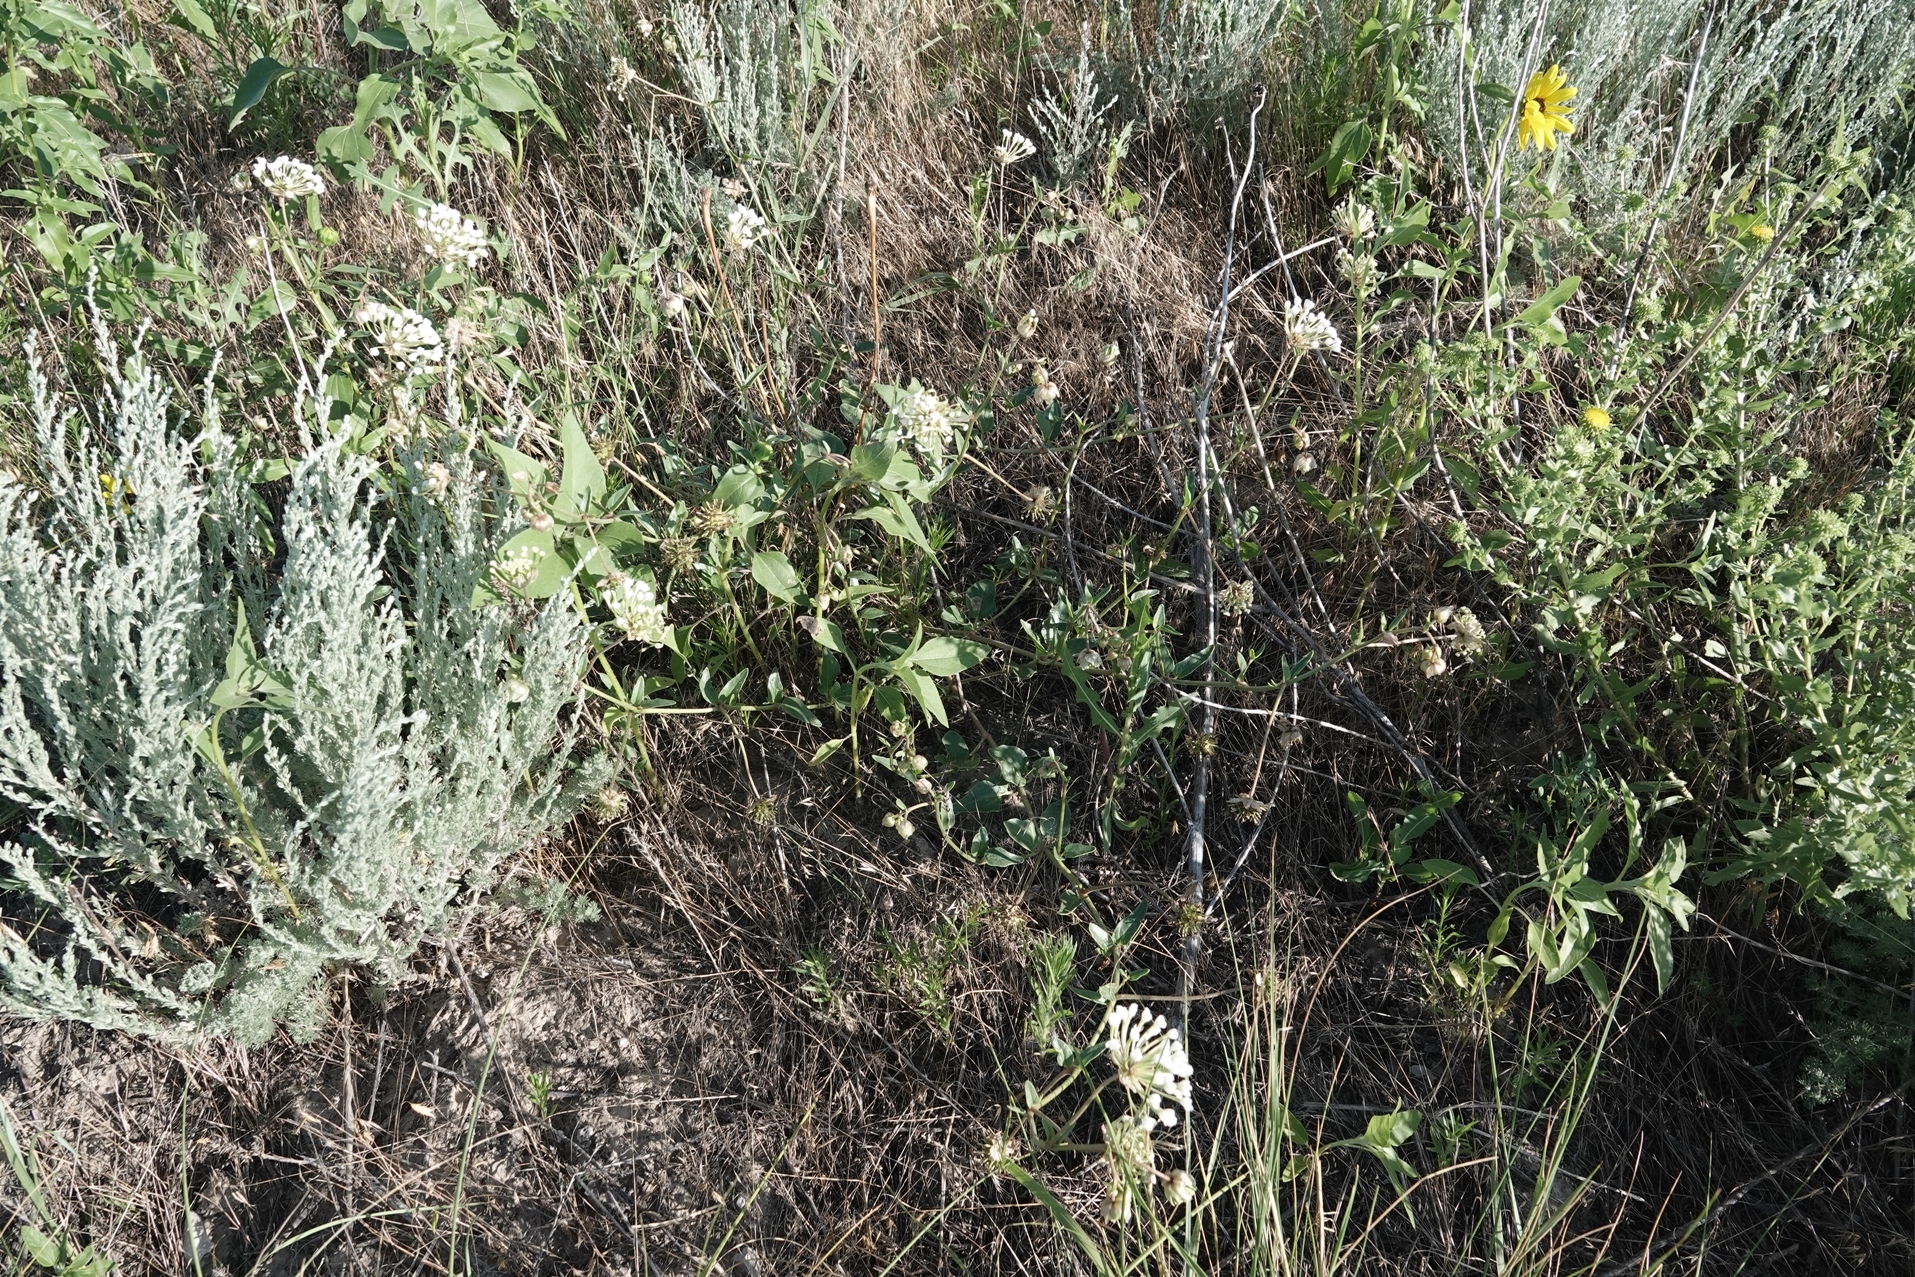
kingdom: Plantae
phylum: Tracheophyta
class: Magnoliopsida
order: Caryophyllales
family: Nyctaginaceae
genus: Abronia
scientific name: Abronia fragrans
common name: Fragrant sand-verbena
